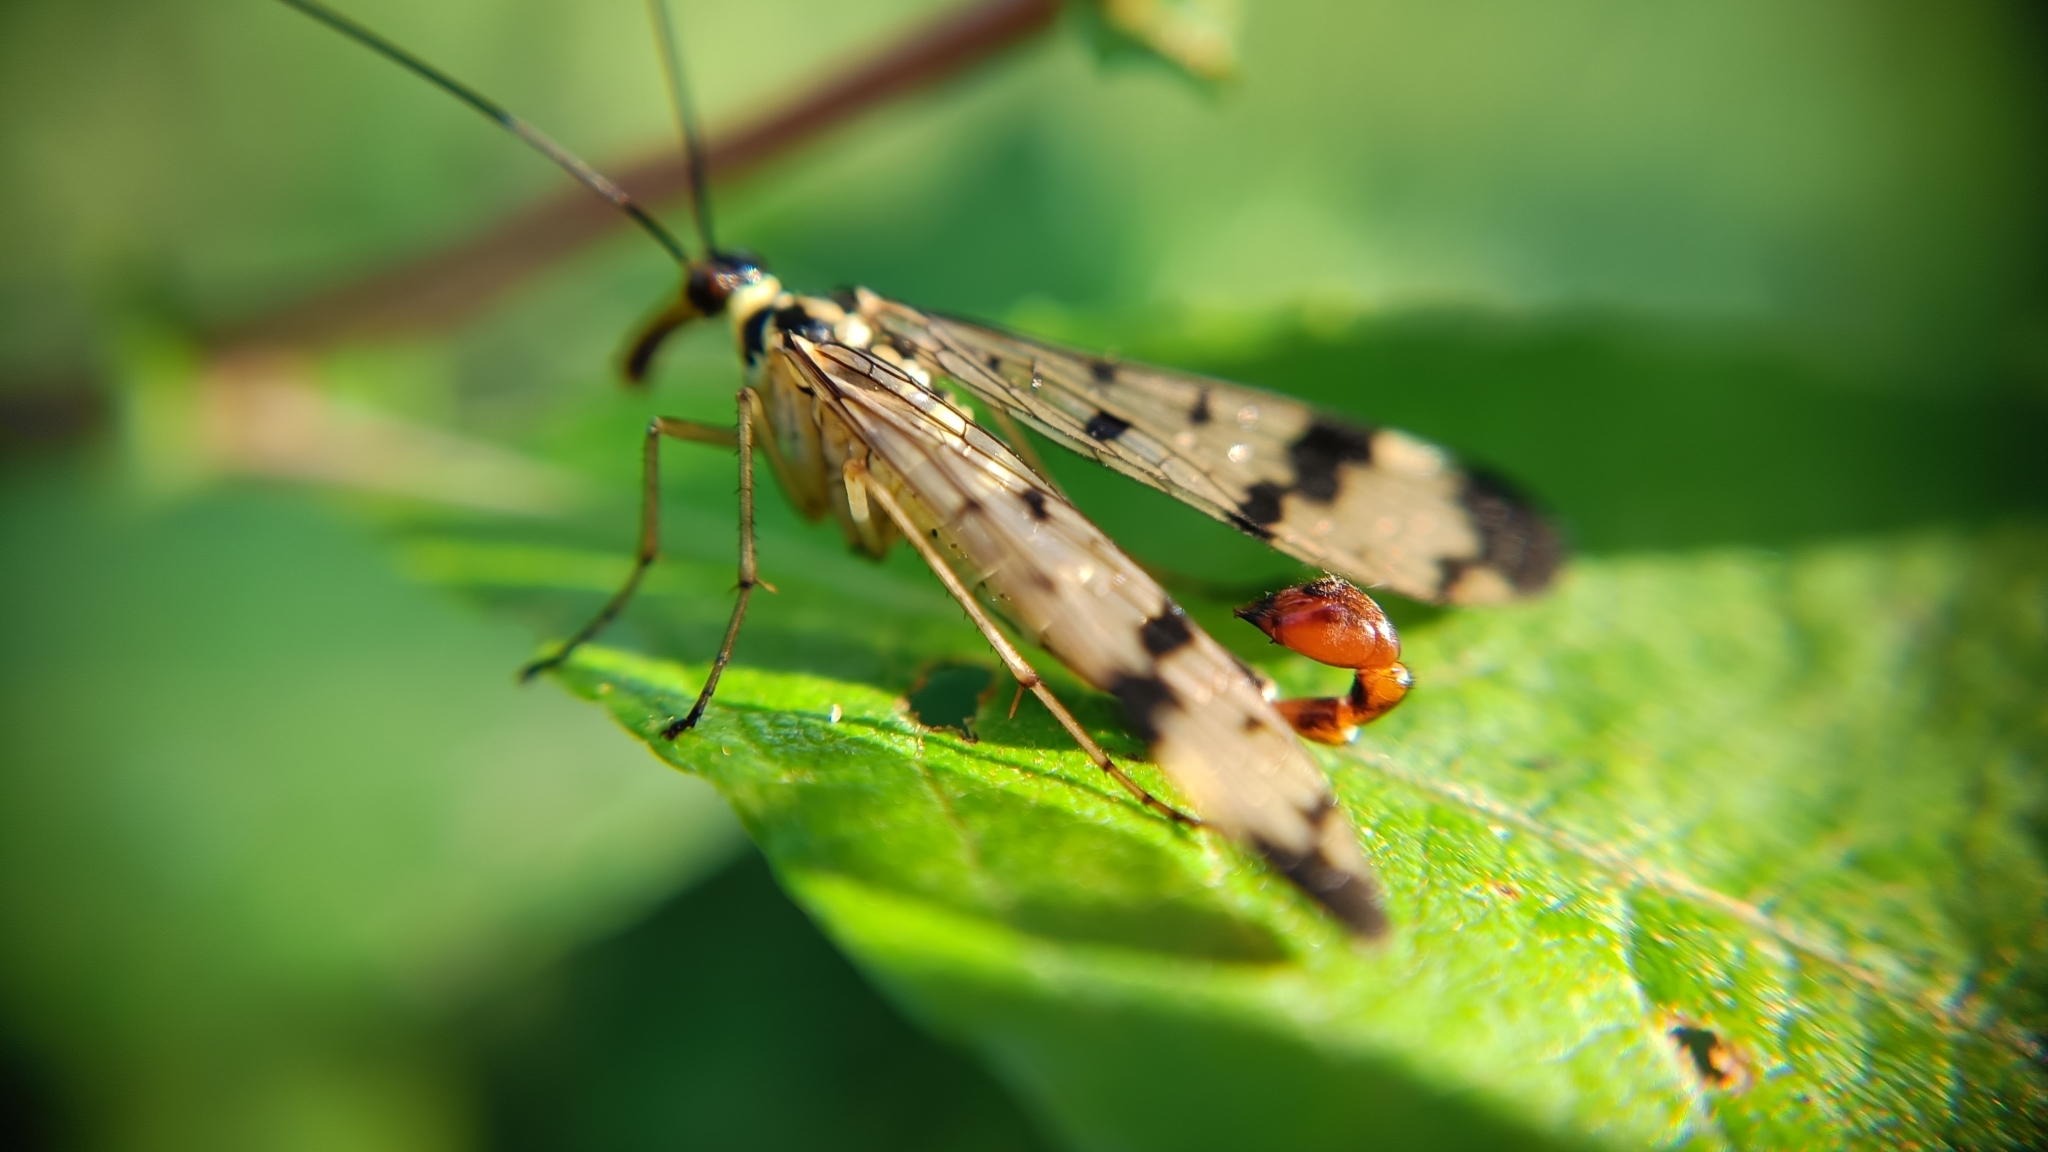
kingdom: Animalia
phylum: Arthropoda
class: Insecta
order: Mecoptera
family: Panorpidae
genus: Panorpa
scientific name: Panorpa communis
